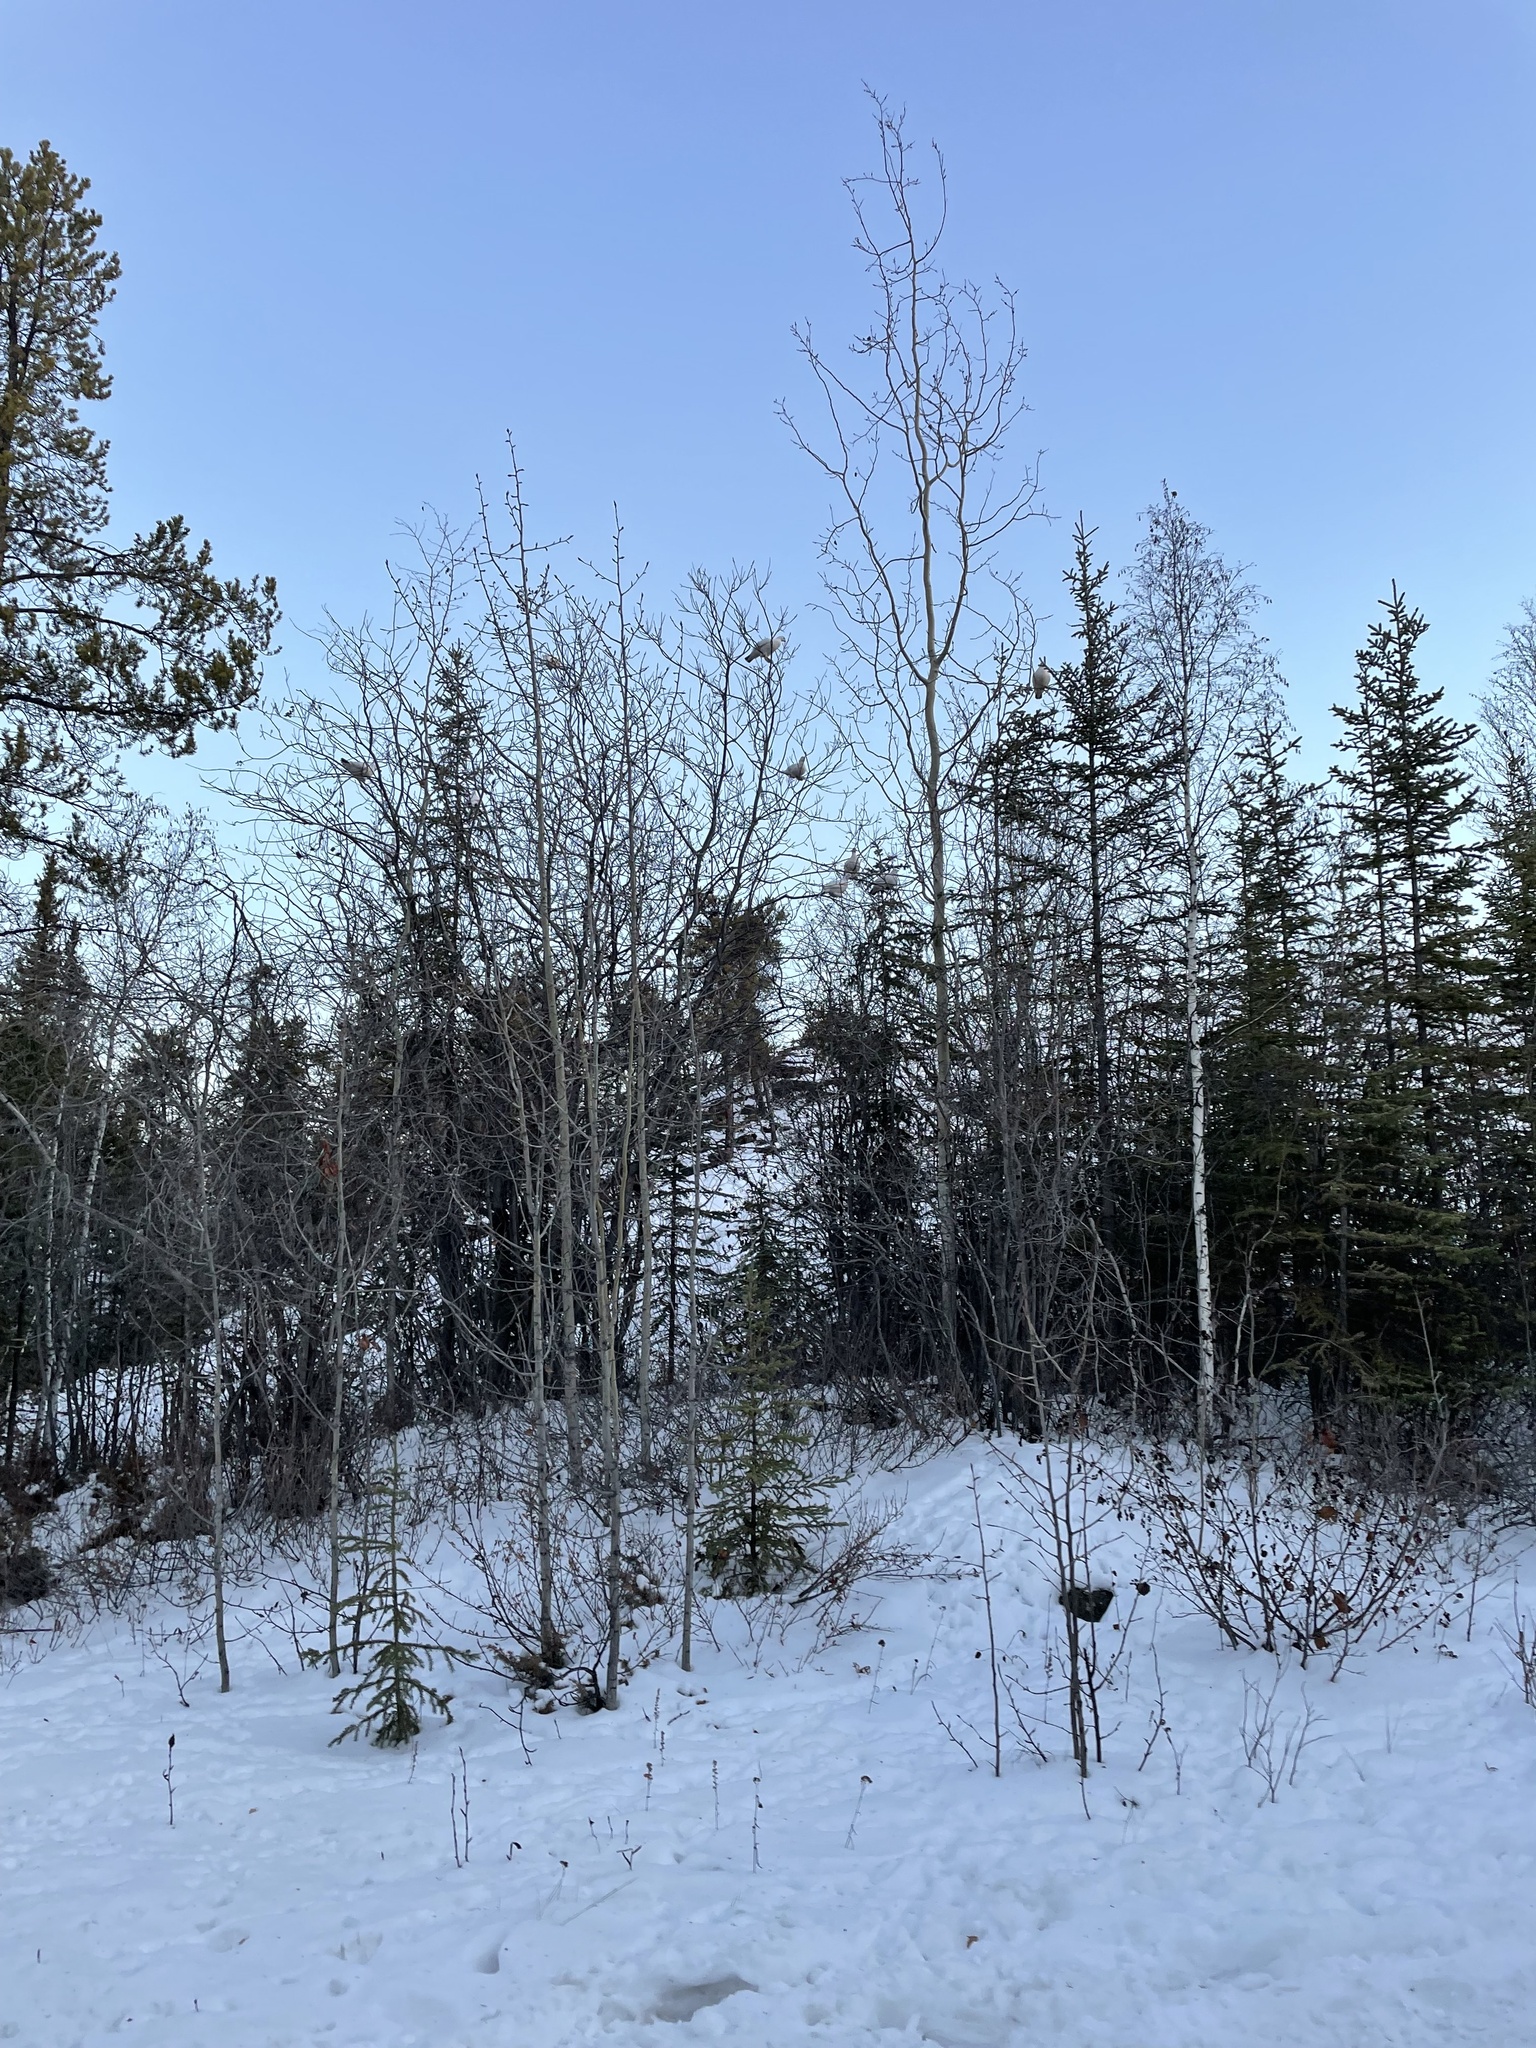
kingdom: Animalia
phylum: Chordata
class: Aves
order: Galliformes
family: Phasianidae
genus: Lagopus
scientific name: Lagopus lagopus
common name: Willow ptarmigan
